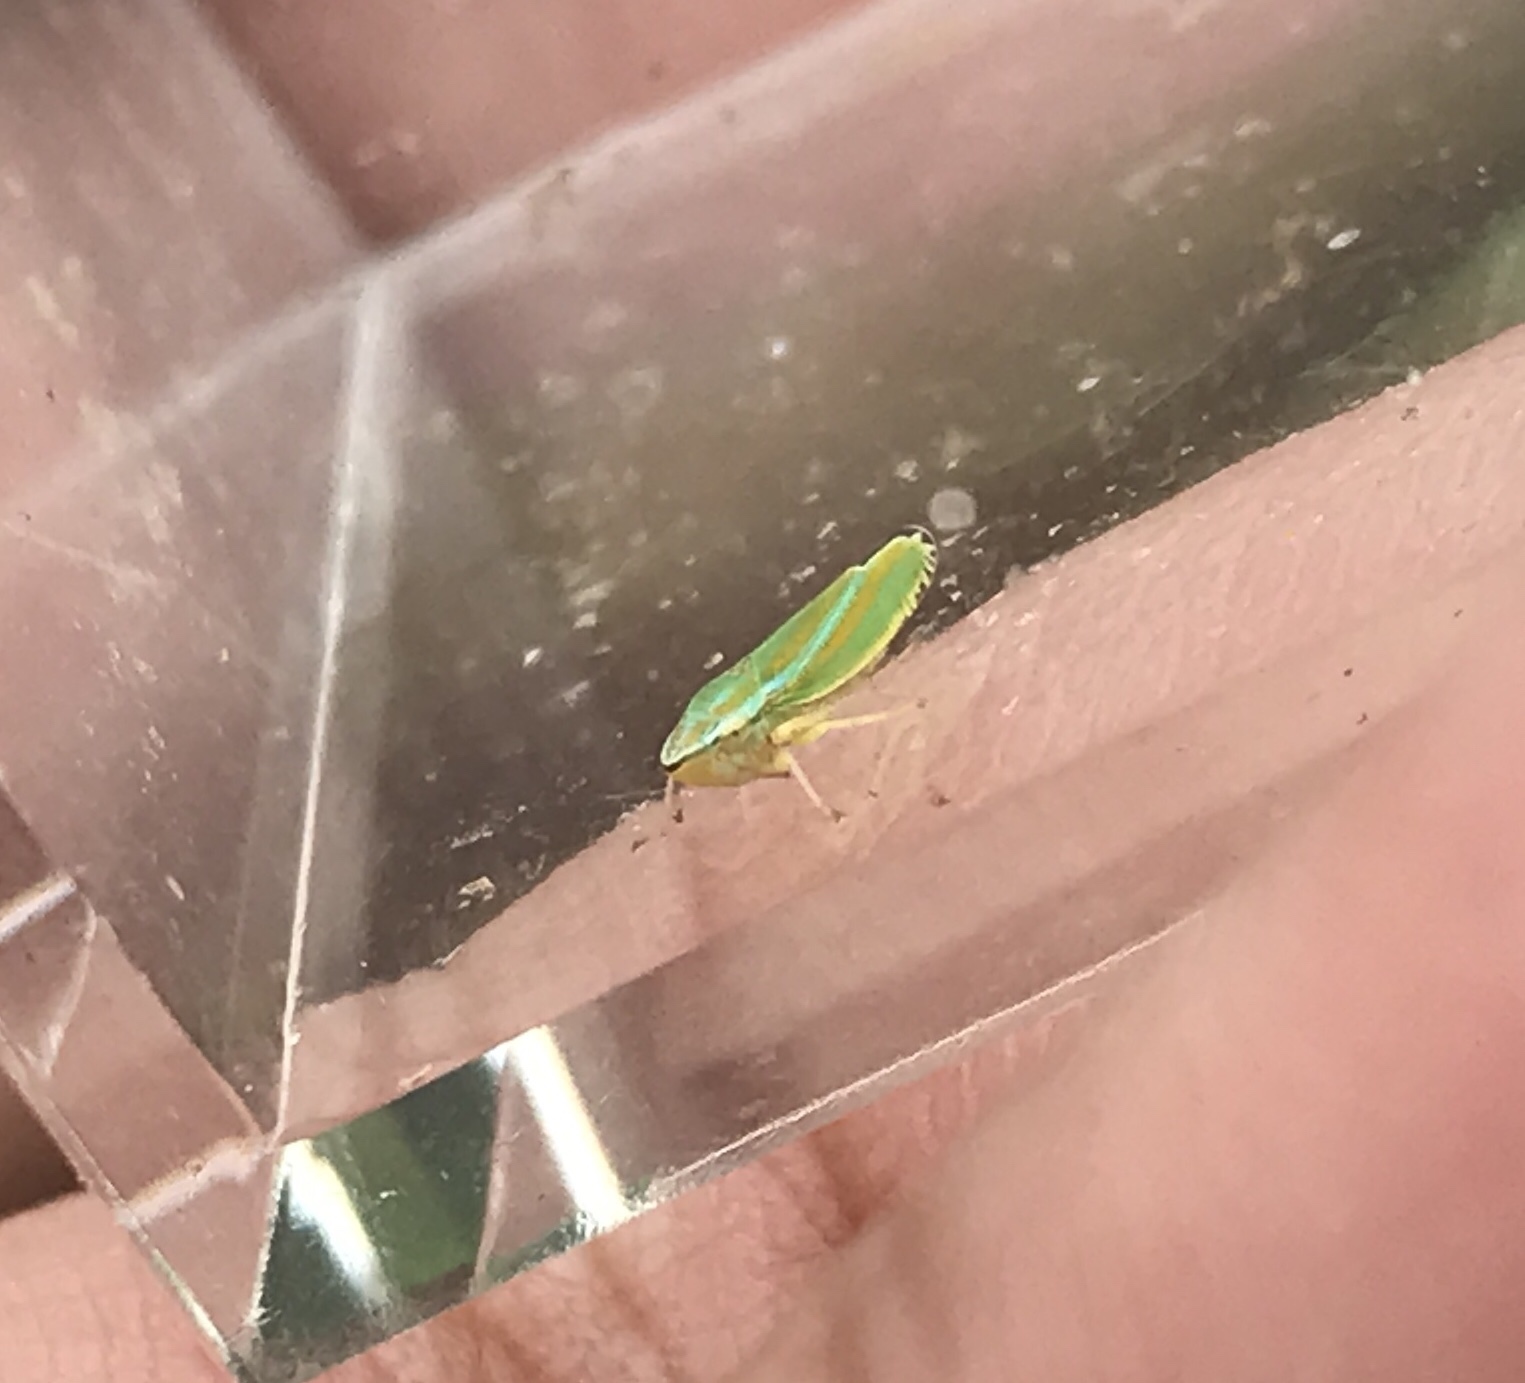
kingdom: Animalia
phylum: Arthropoda
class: Insecta
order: Hemiptera
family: Cicadellidae
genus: Graphocephala
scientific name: Graphocephala versuta
